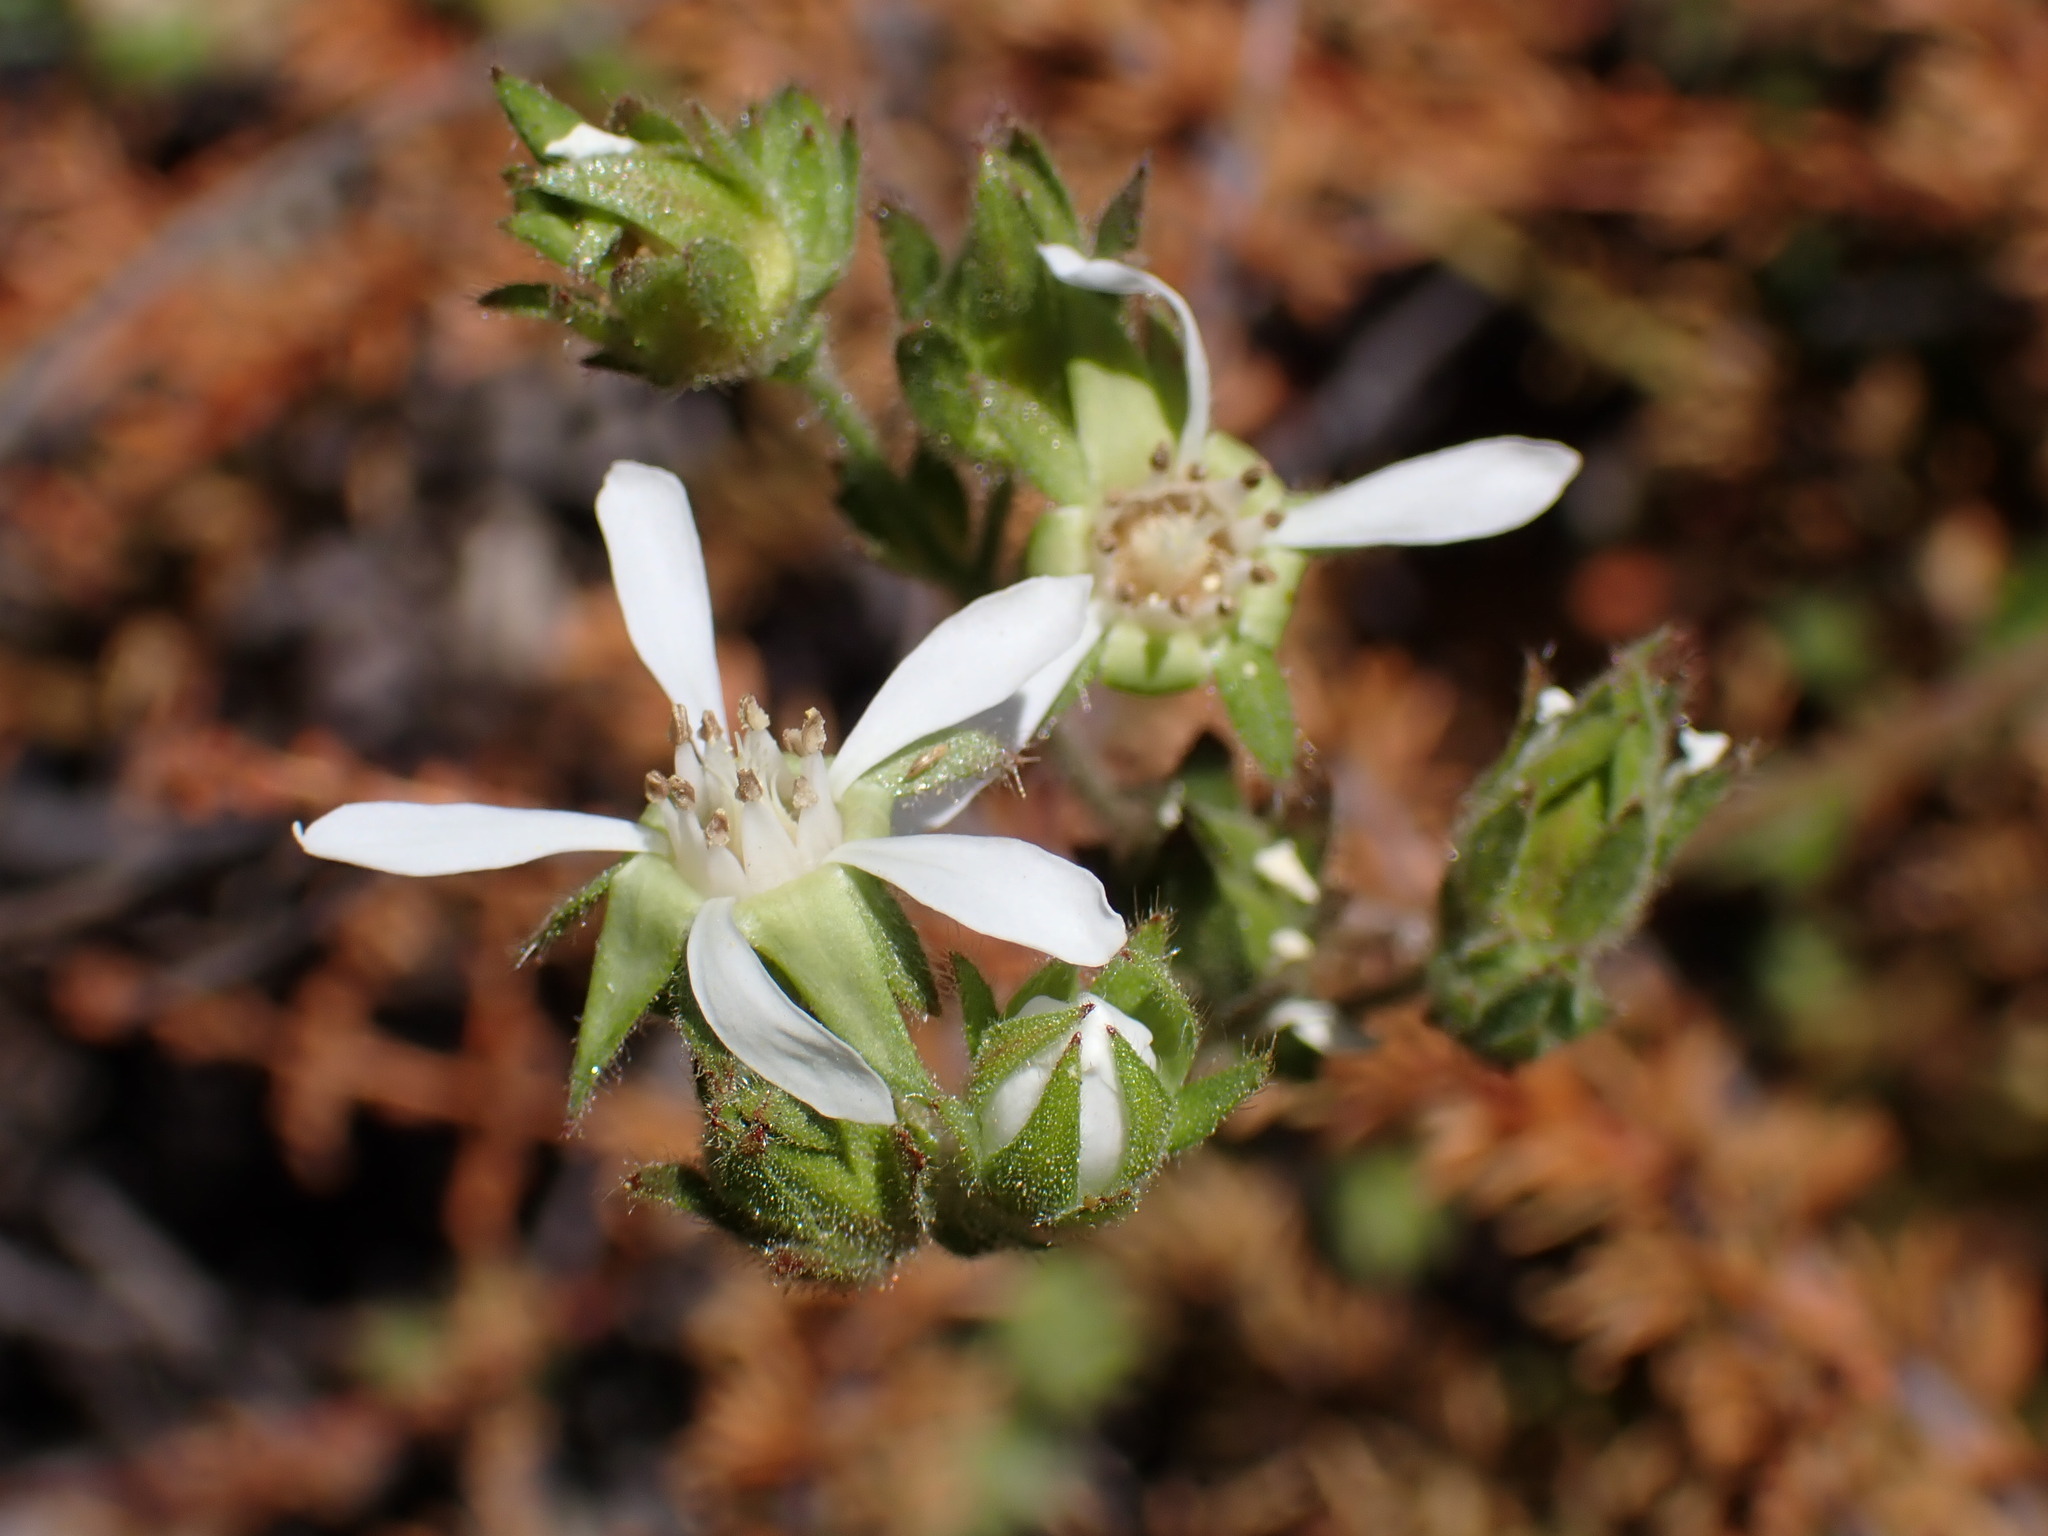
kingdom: Plantae
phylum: Tracheophyta
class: Magnoliopsida
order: Rosales
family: Rosaceae
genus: Potentilla
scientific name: Potentilla
